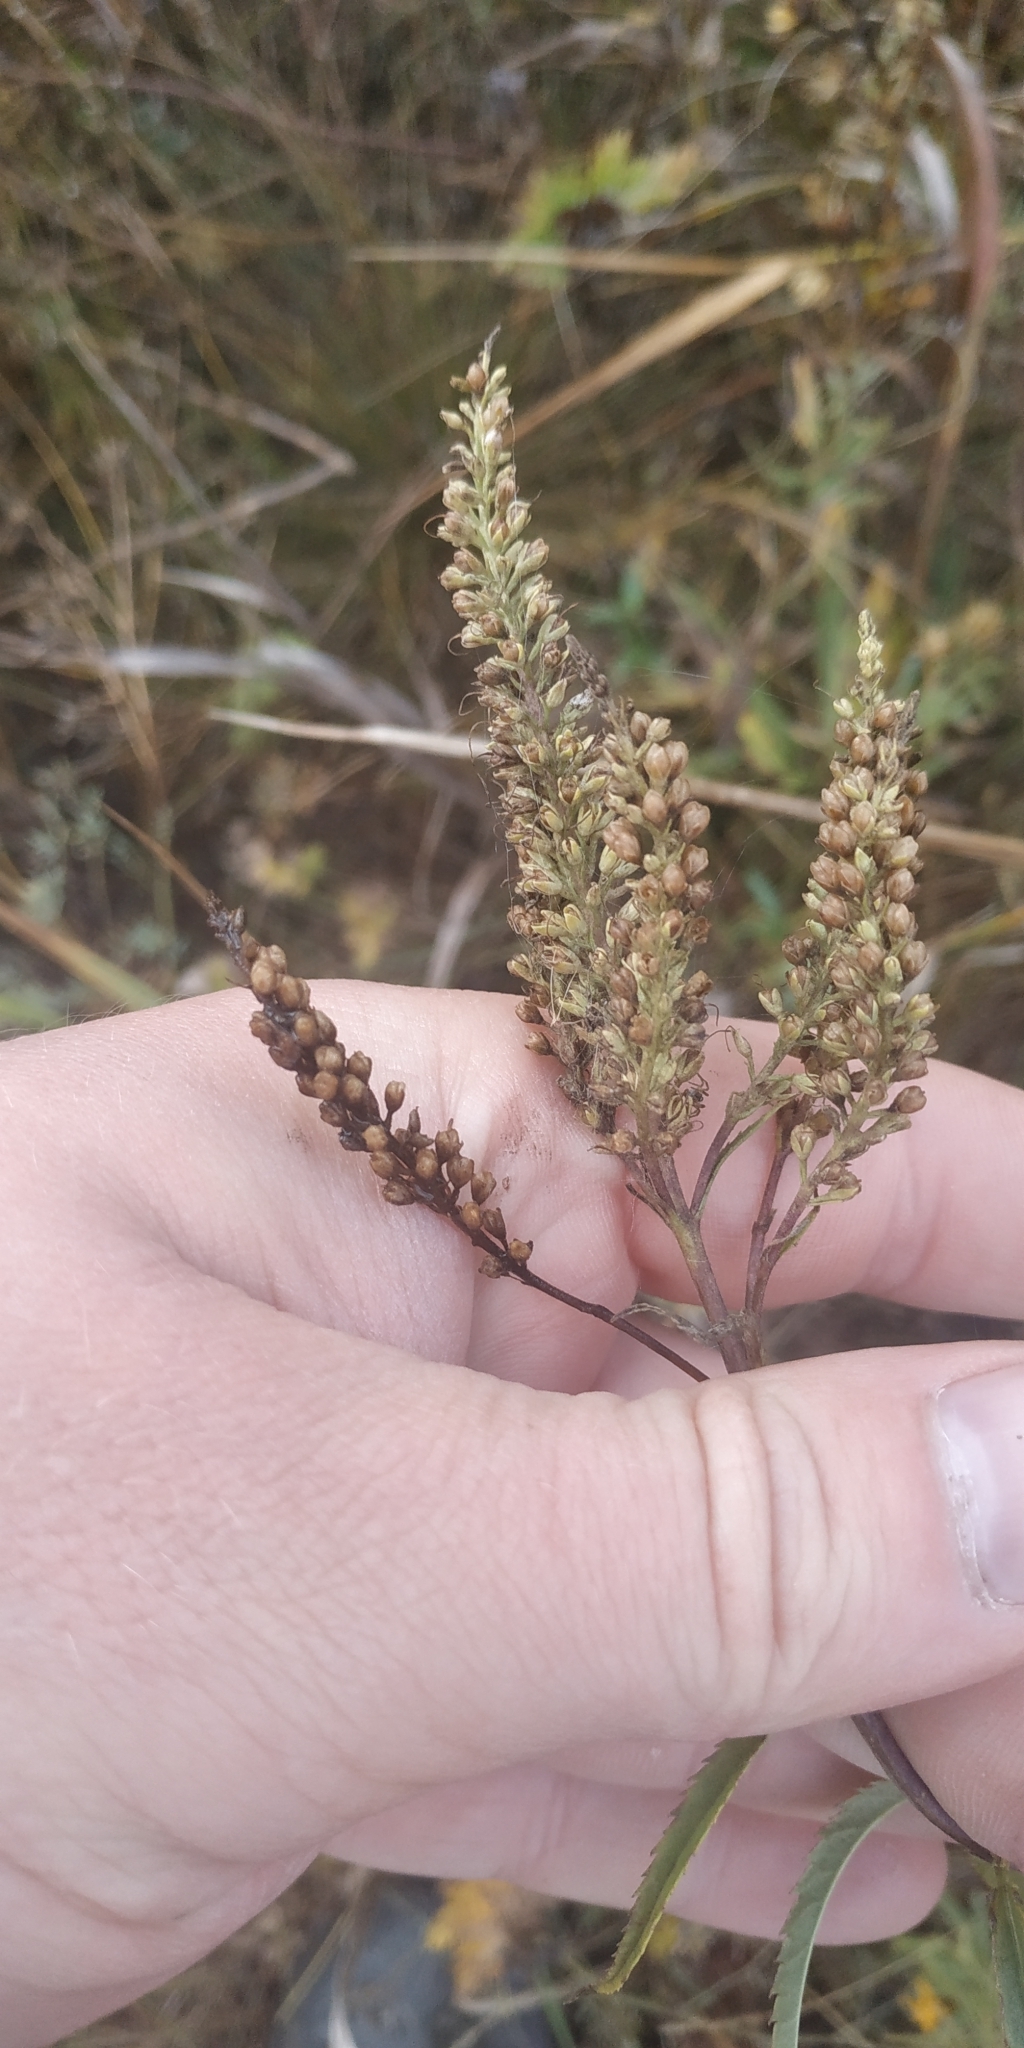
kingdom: Plantae
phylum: Tracheophyta
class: Magnoliopsida
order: Lamiales
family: Plantaginaceae
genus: Veronica
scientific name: Veronica longifolia
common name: Garden speedwell
